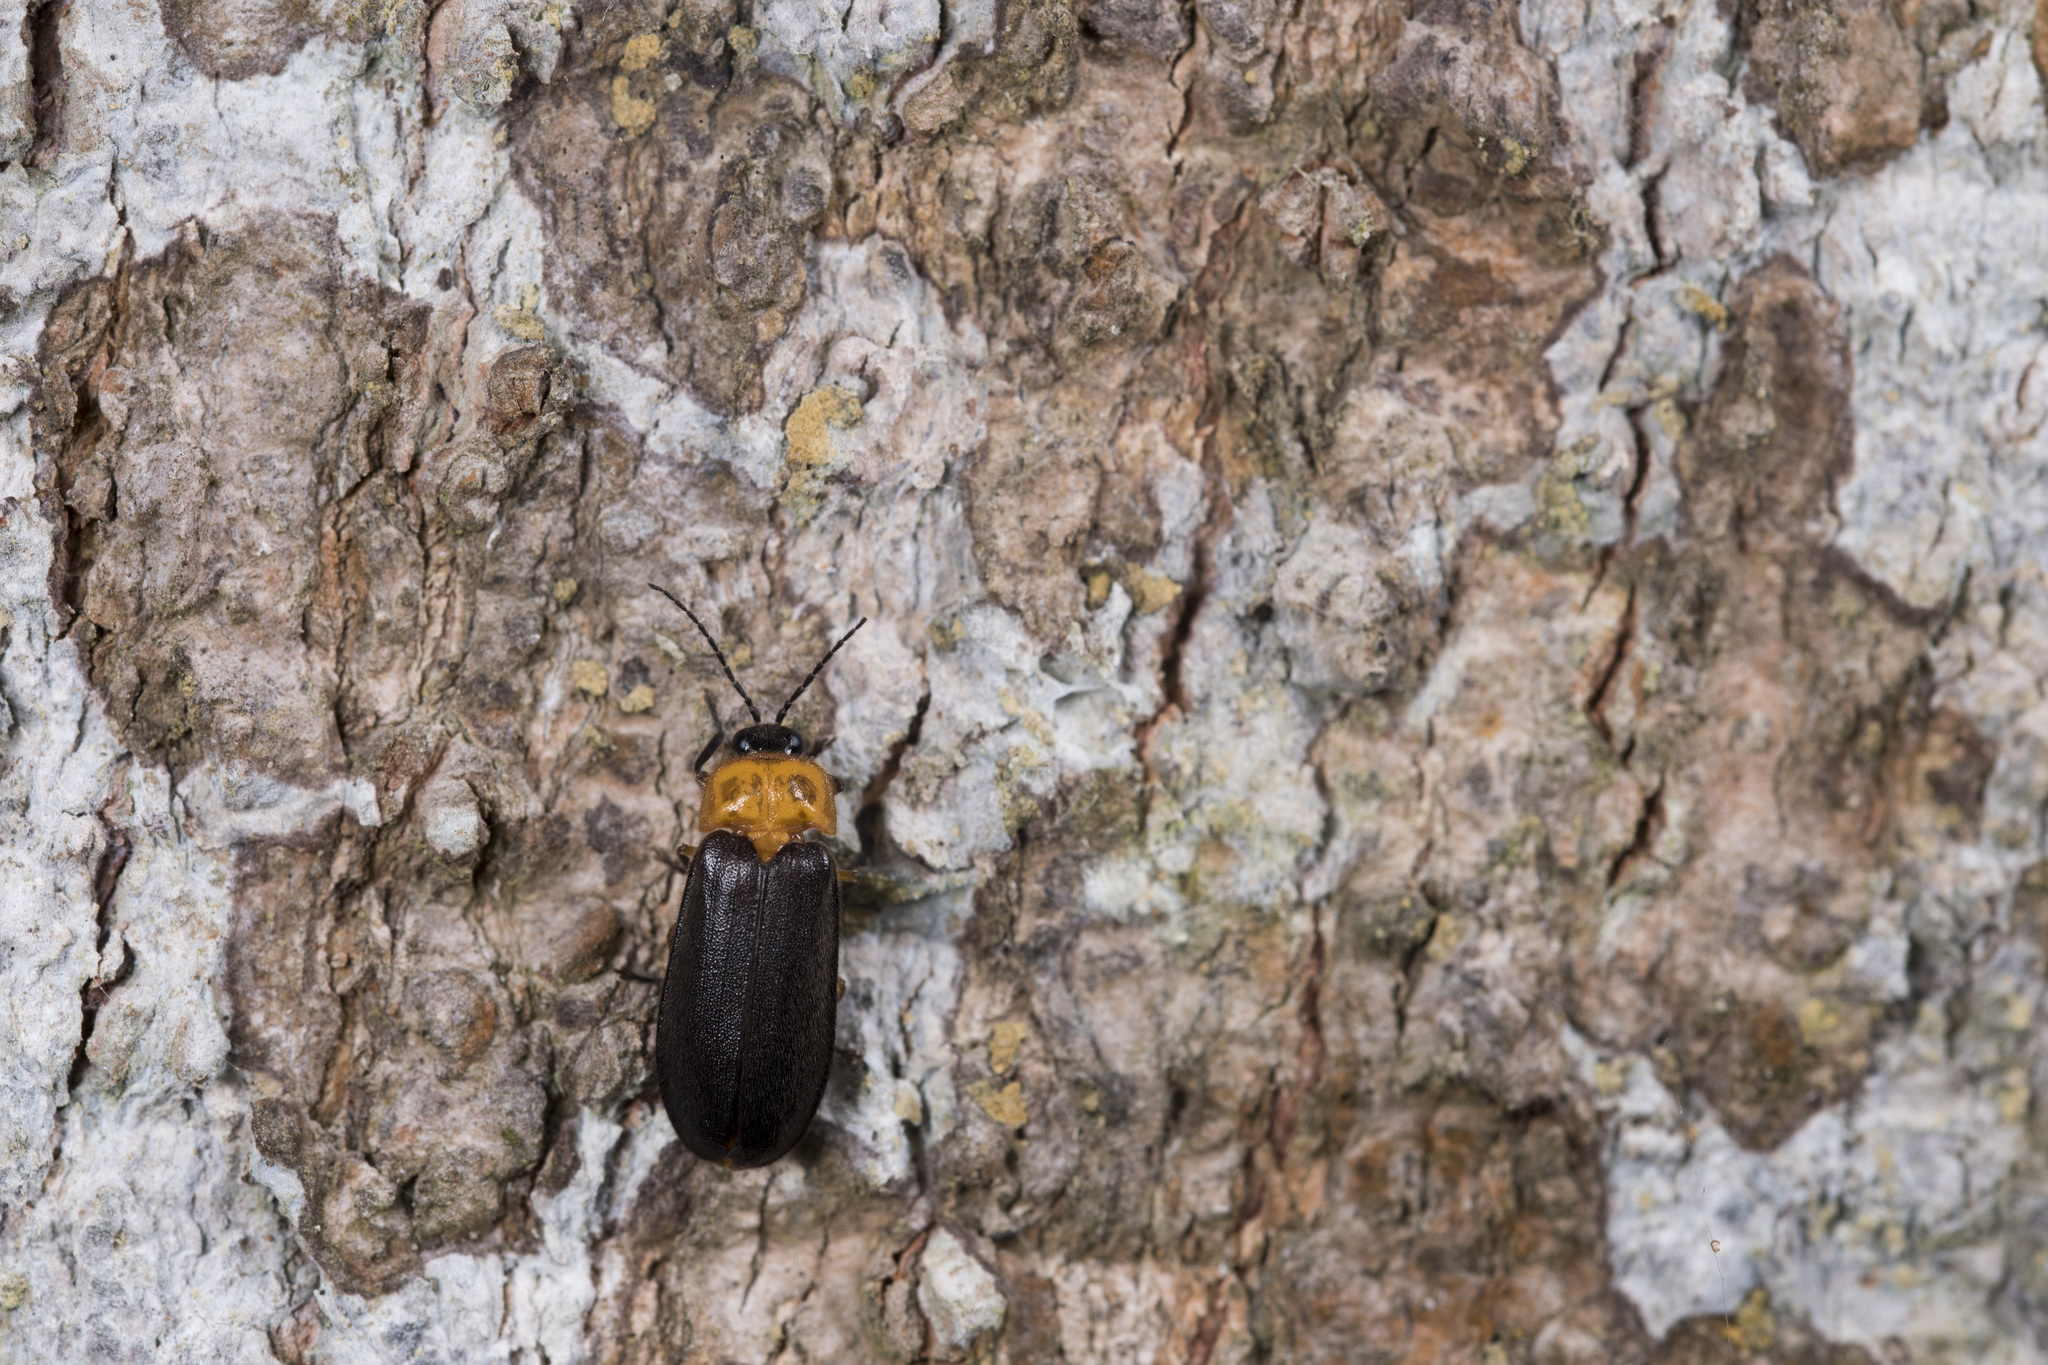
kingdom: Animalia
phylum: Arthropoda
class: Insecta
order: Coleoptera
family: Lampyridae
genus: Abscondita
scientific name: Abscondita cerata
